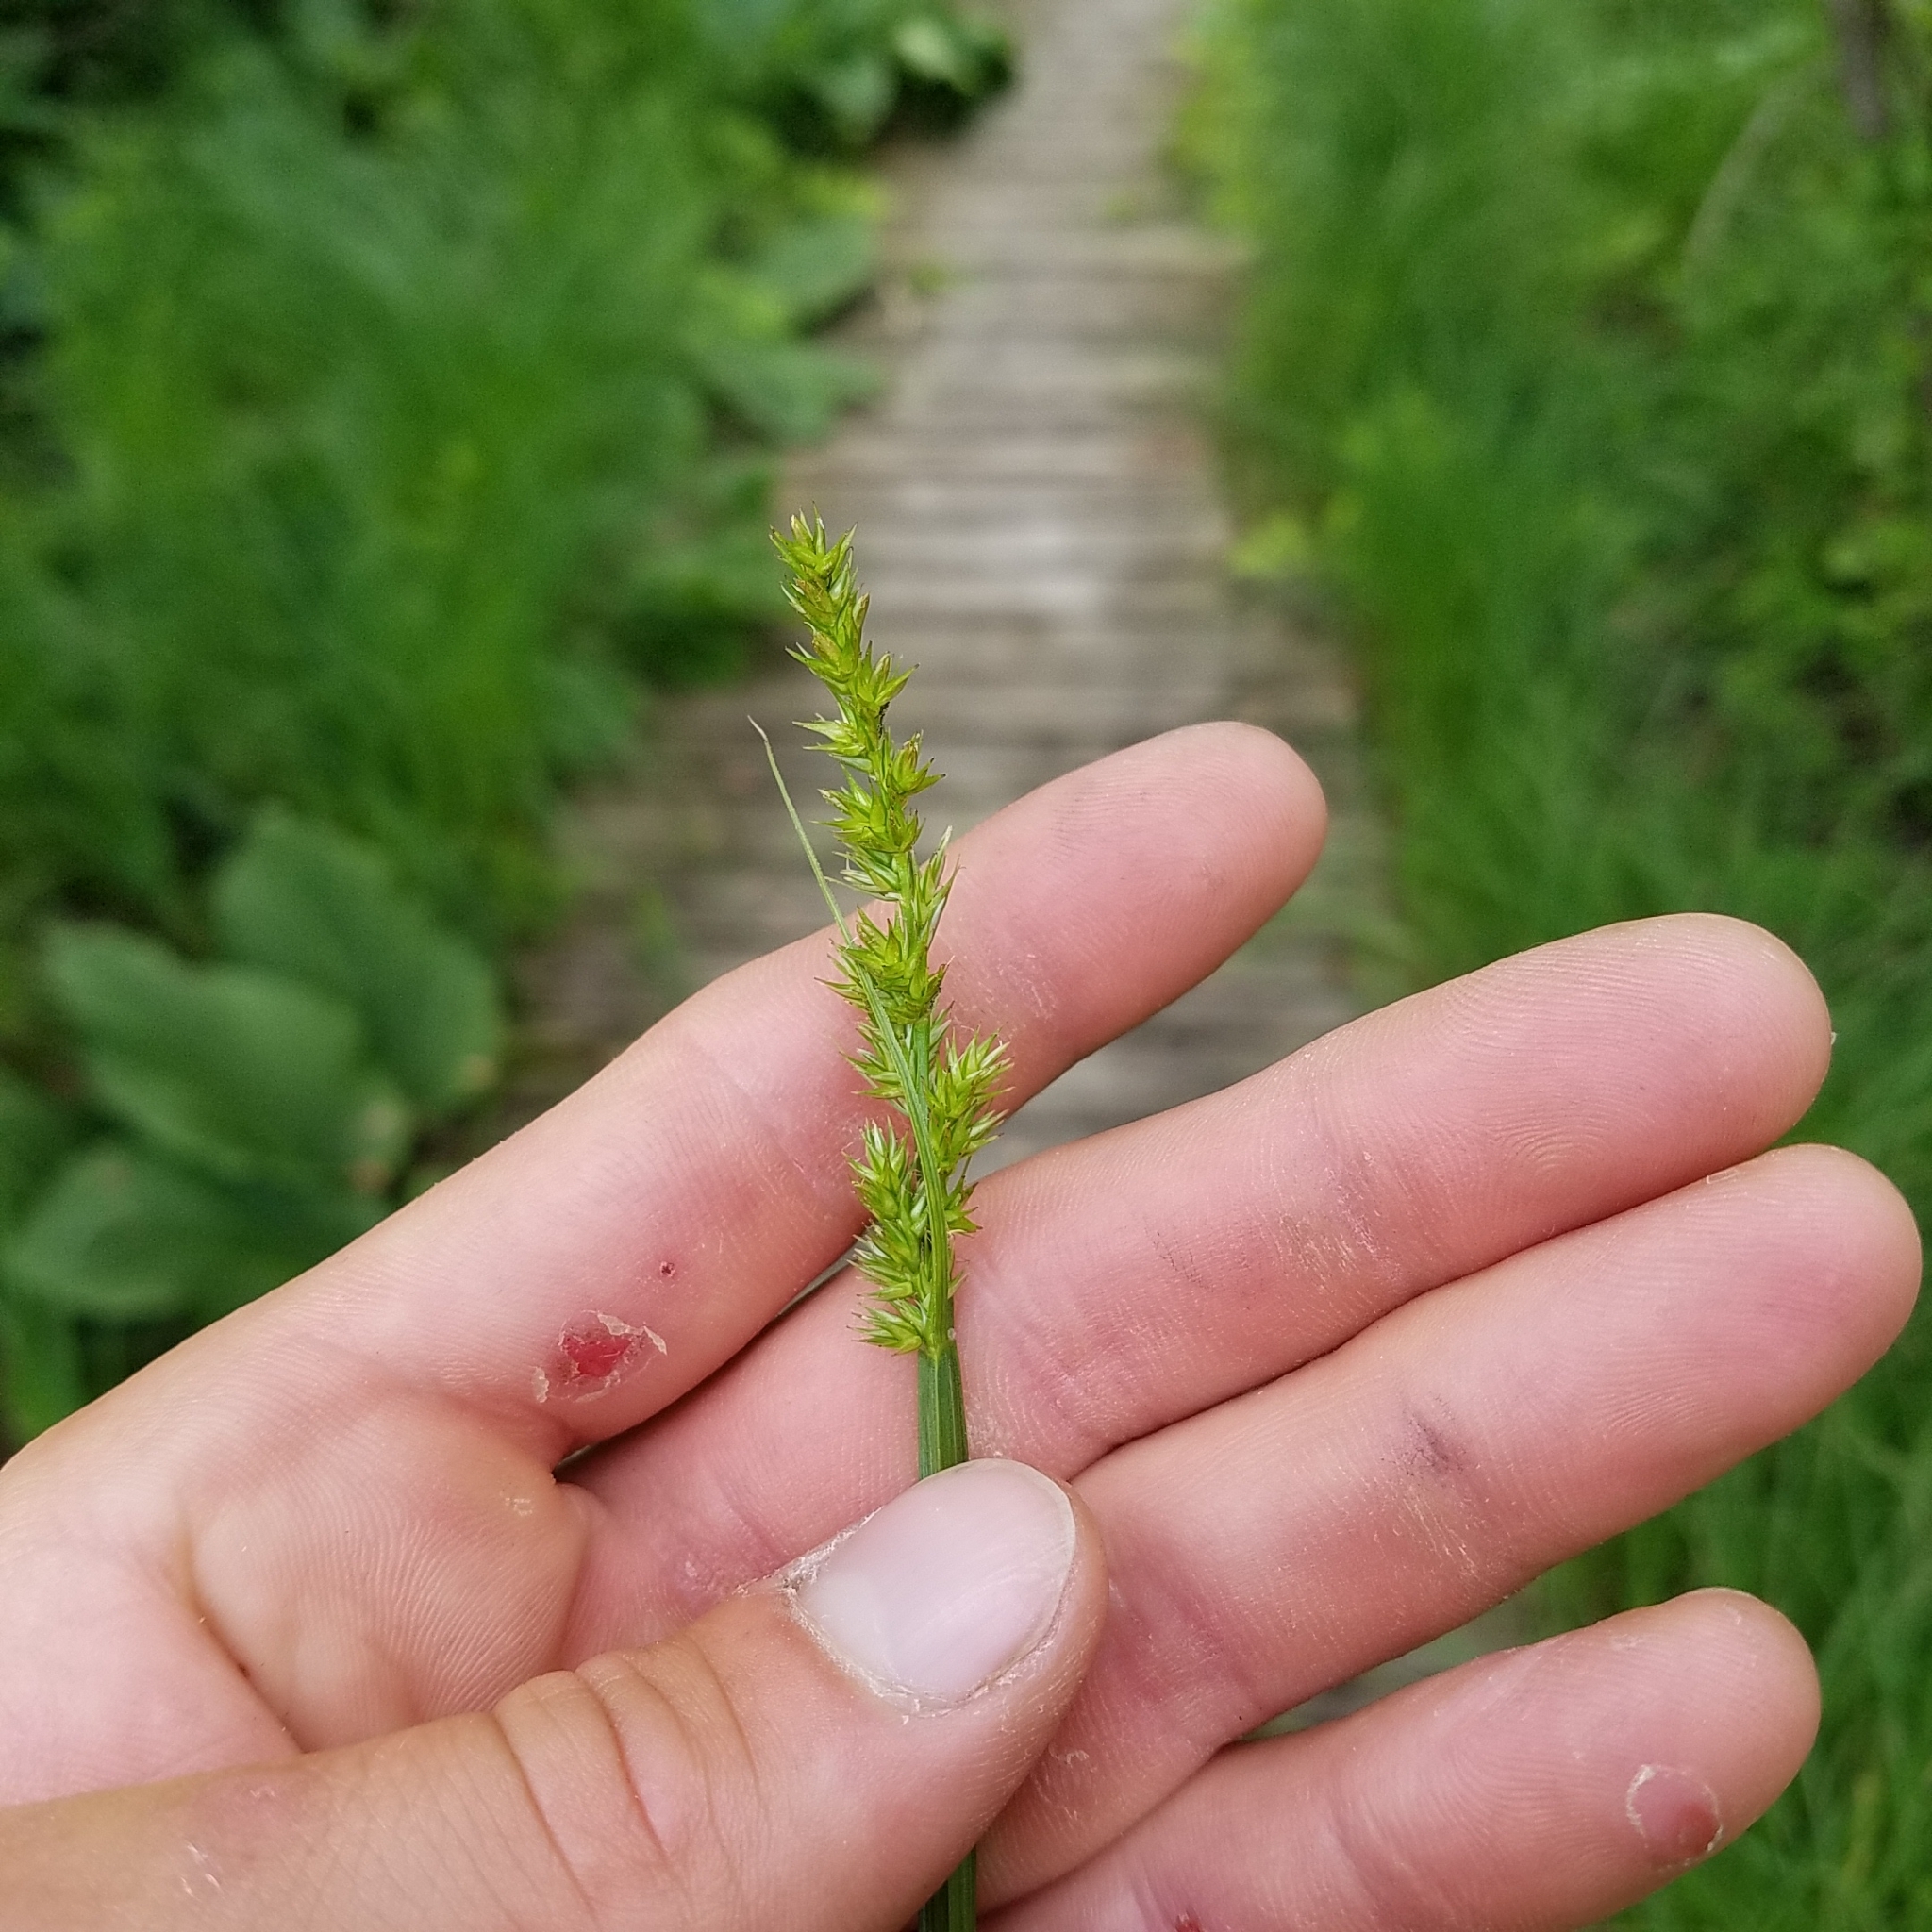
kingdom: Plantae
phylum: Tracheophyta
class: Liliopsida
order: Poales
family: Cyperaceae
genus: Carex
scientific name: Carex stipata
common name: Awl-fruited sedge
